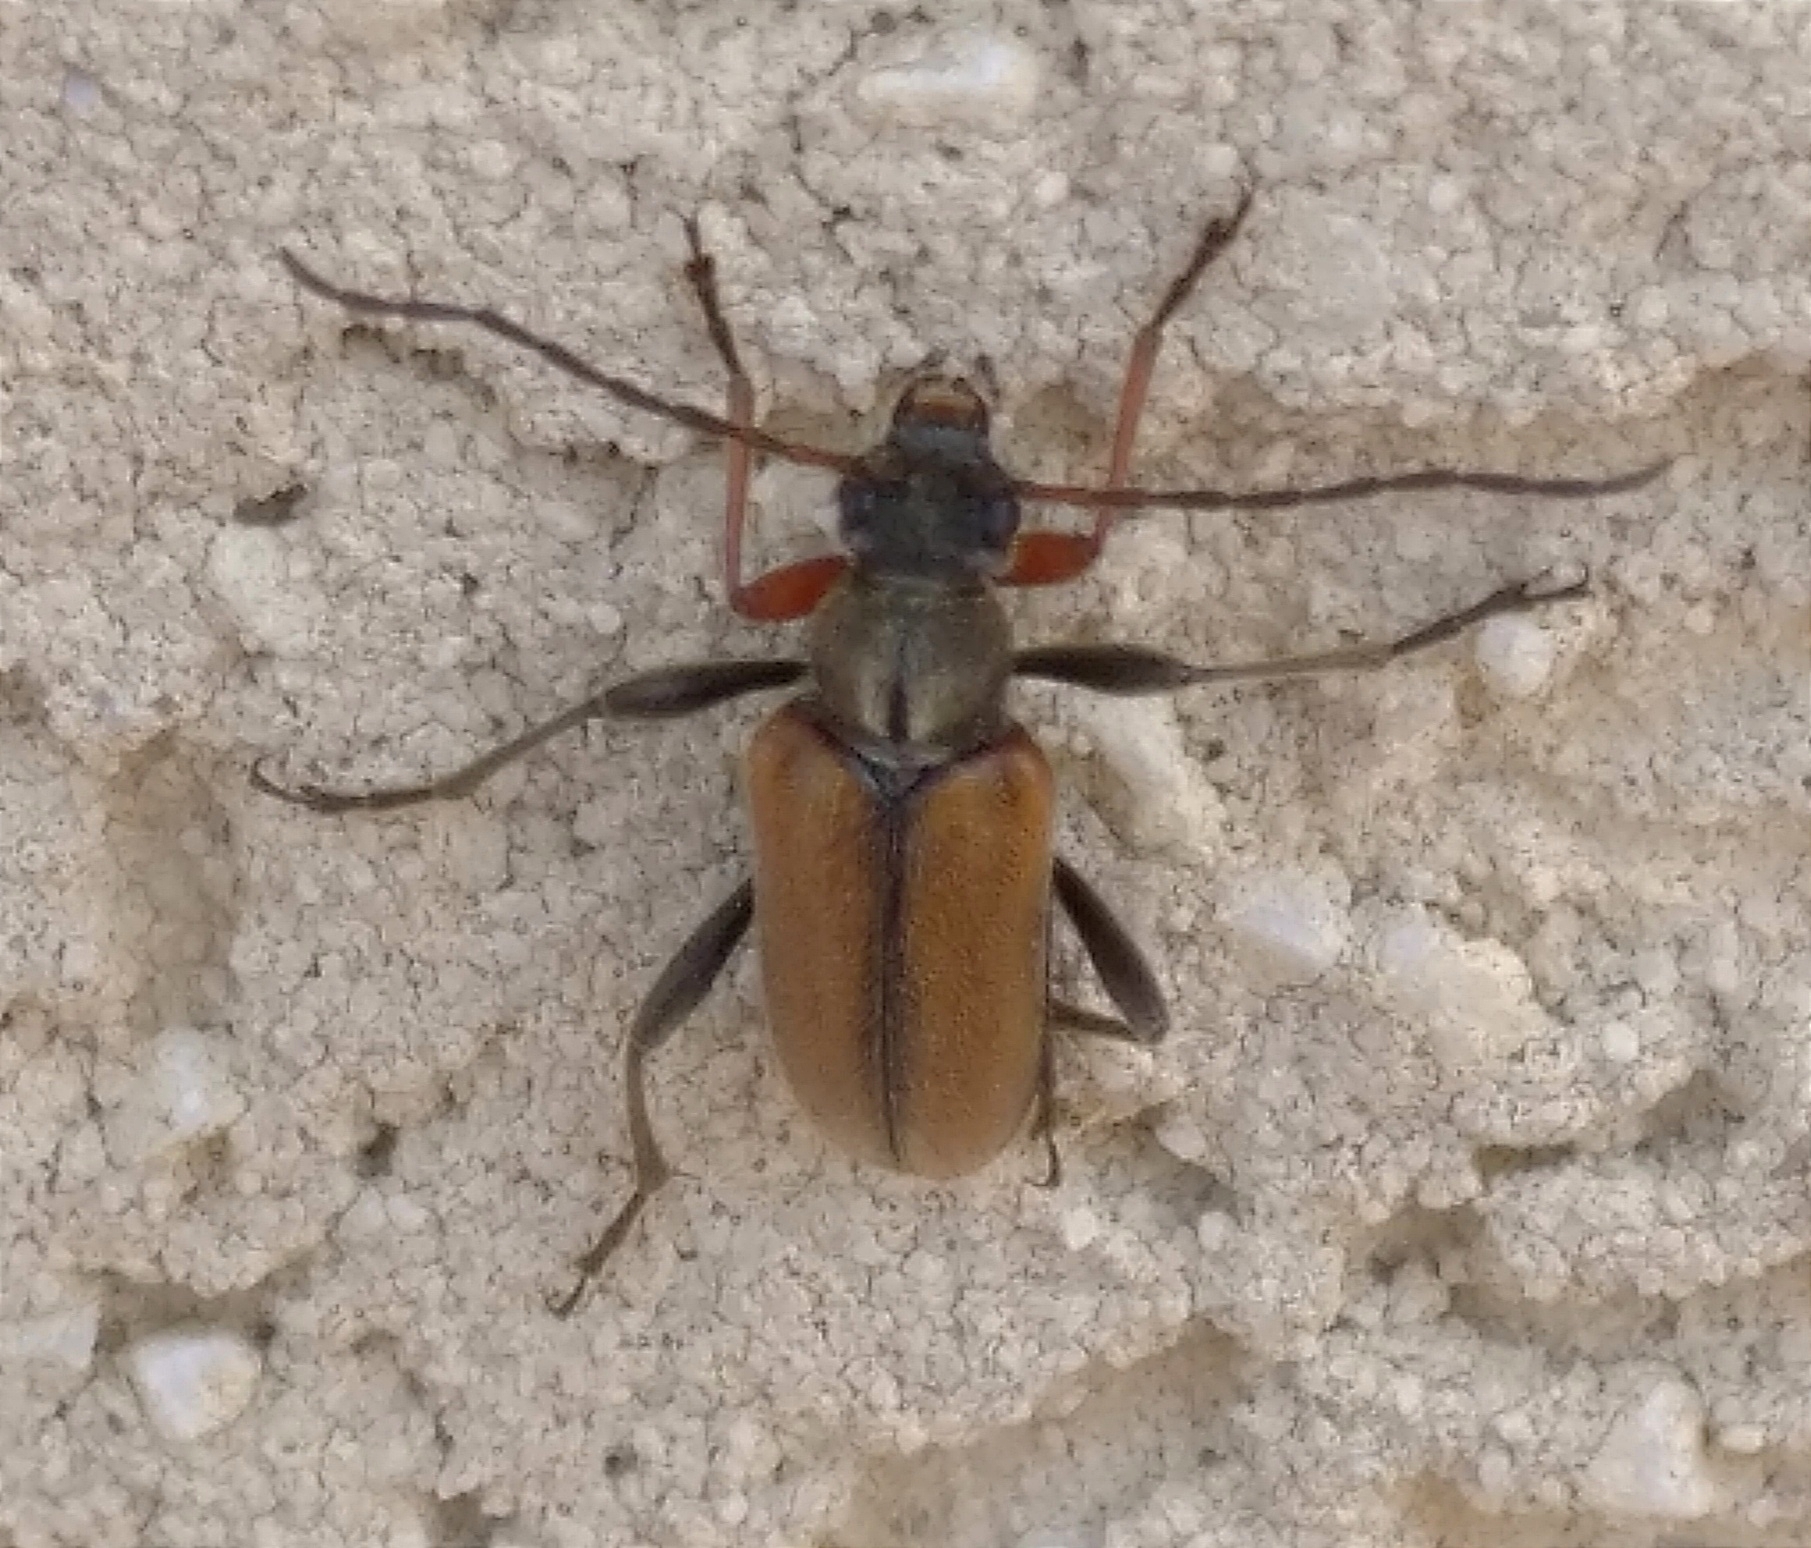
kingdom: Animalia
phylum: Arthropoda
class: Insecta
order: Coleoptera
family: Cerambycidae
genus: Cortodera
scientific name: Cortodera flavimana
